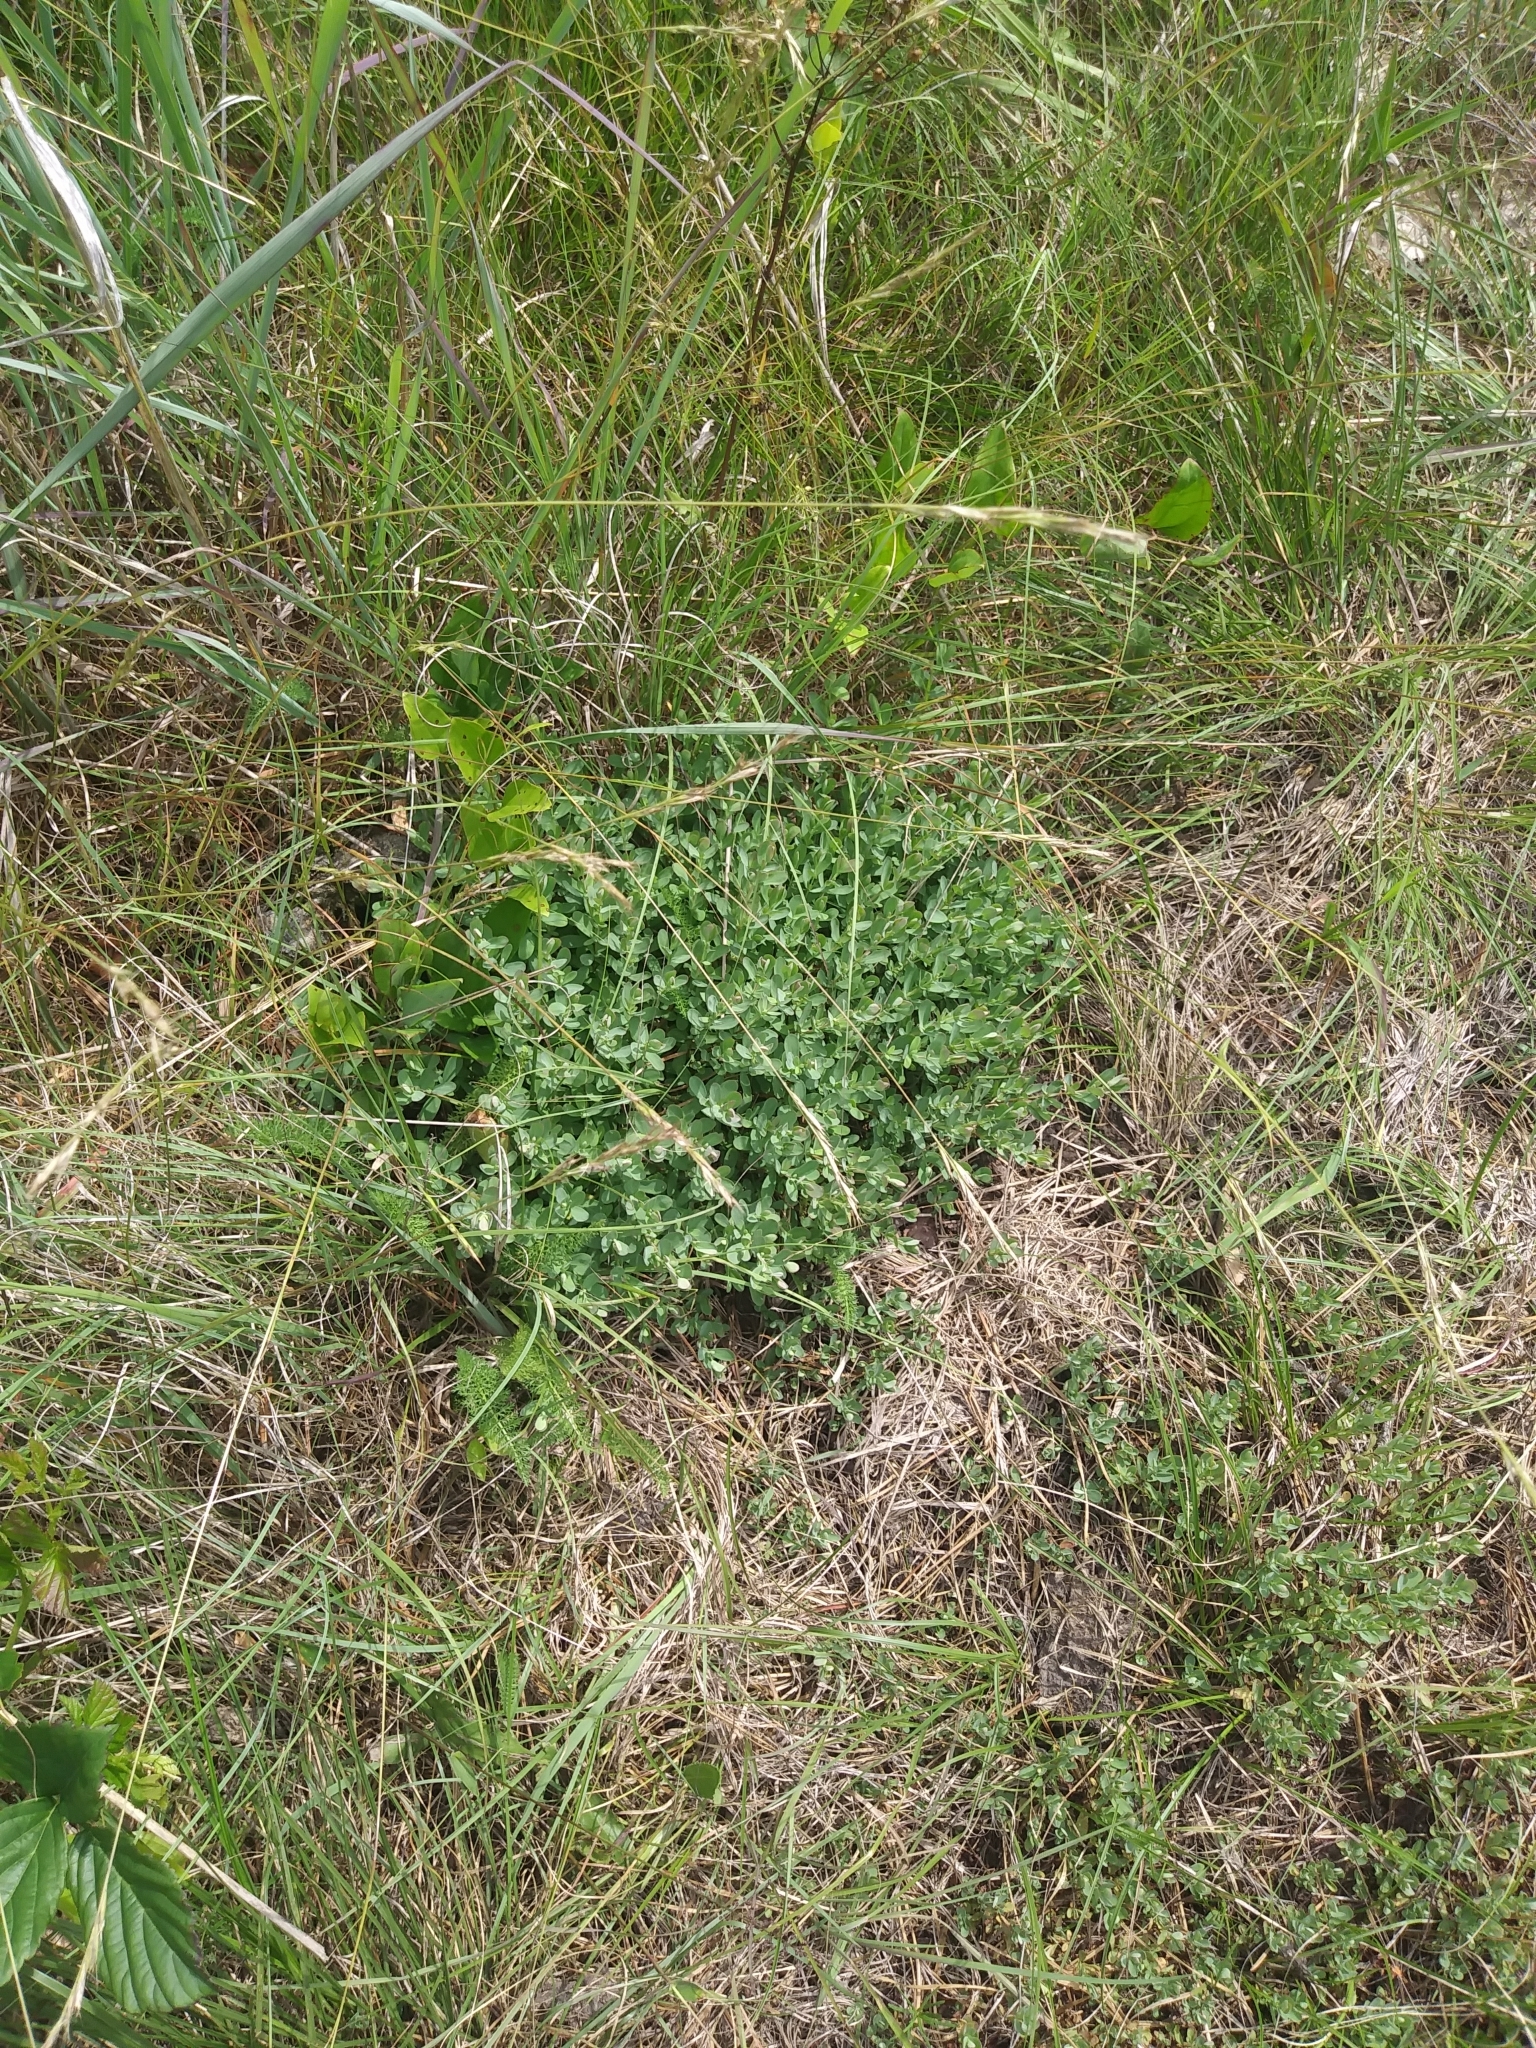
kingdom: Plantae
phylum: Tracheophyta
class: Magnoliopsida
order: Malpighiales
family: Hypericaceae
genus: Hypericum
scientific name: Hypericum hypericoides
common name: St. andrew's cross
